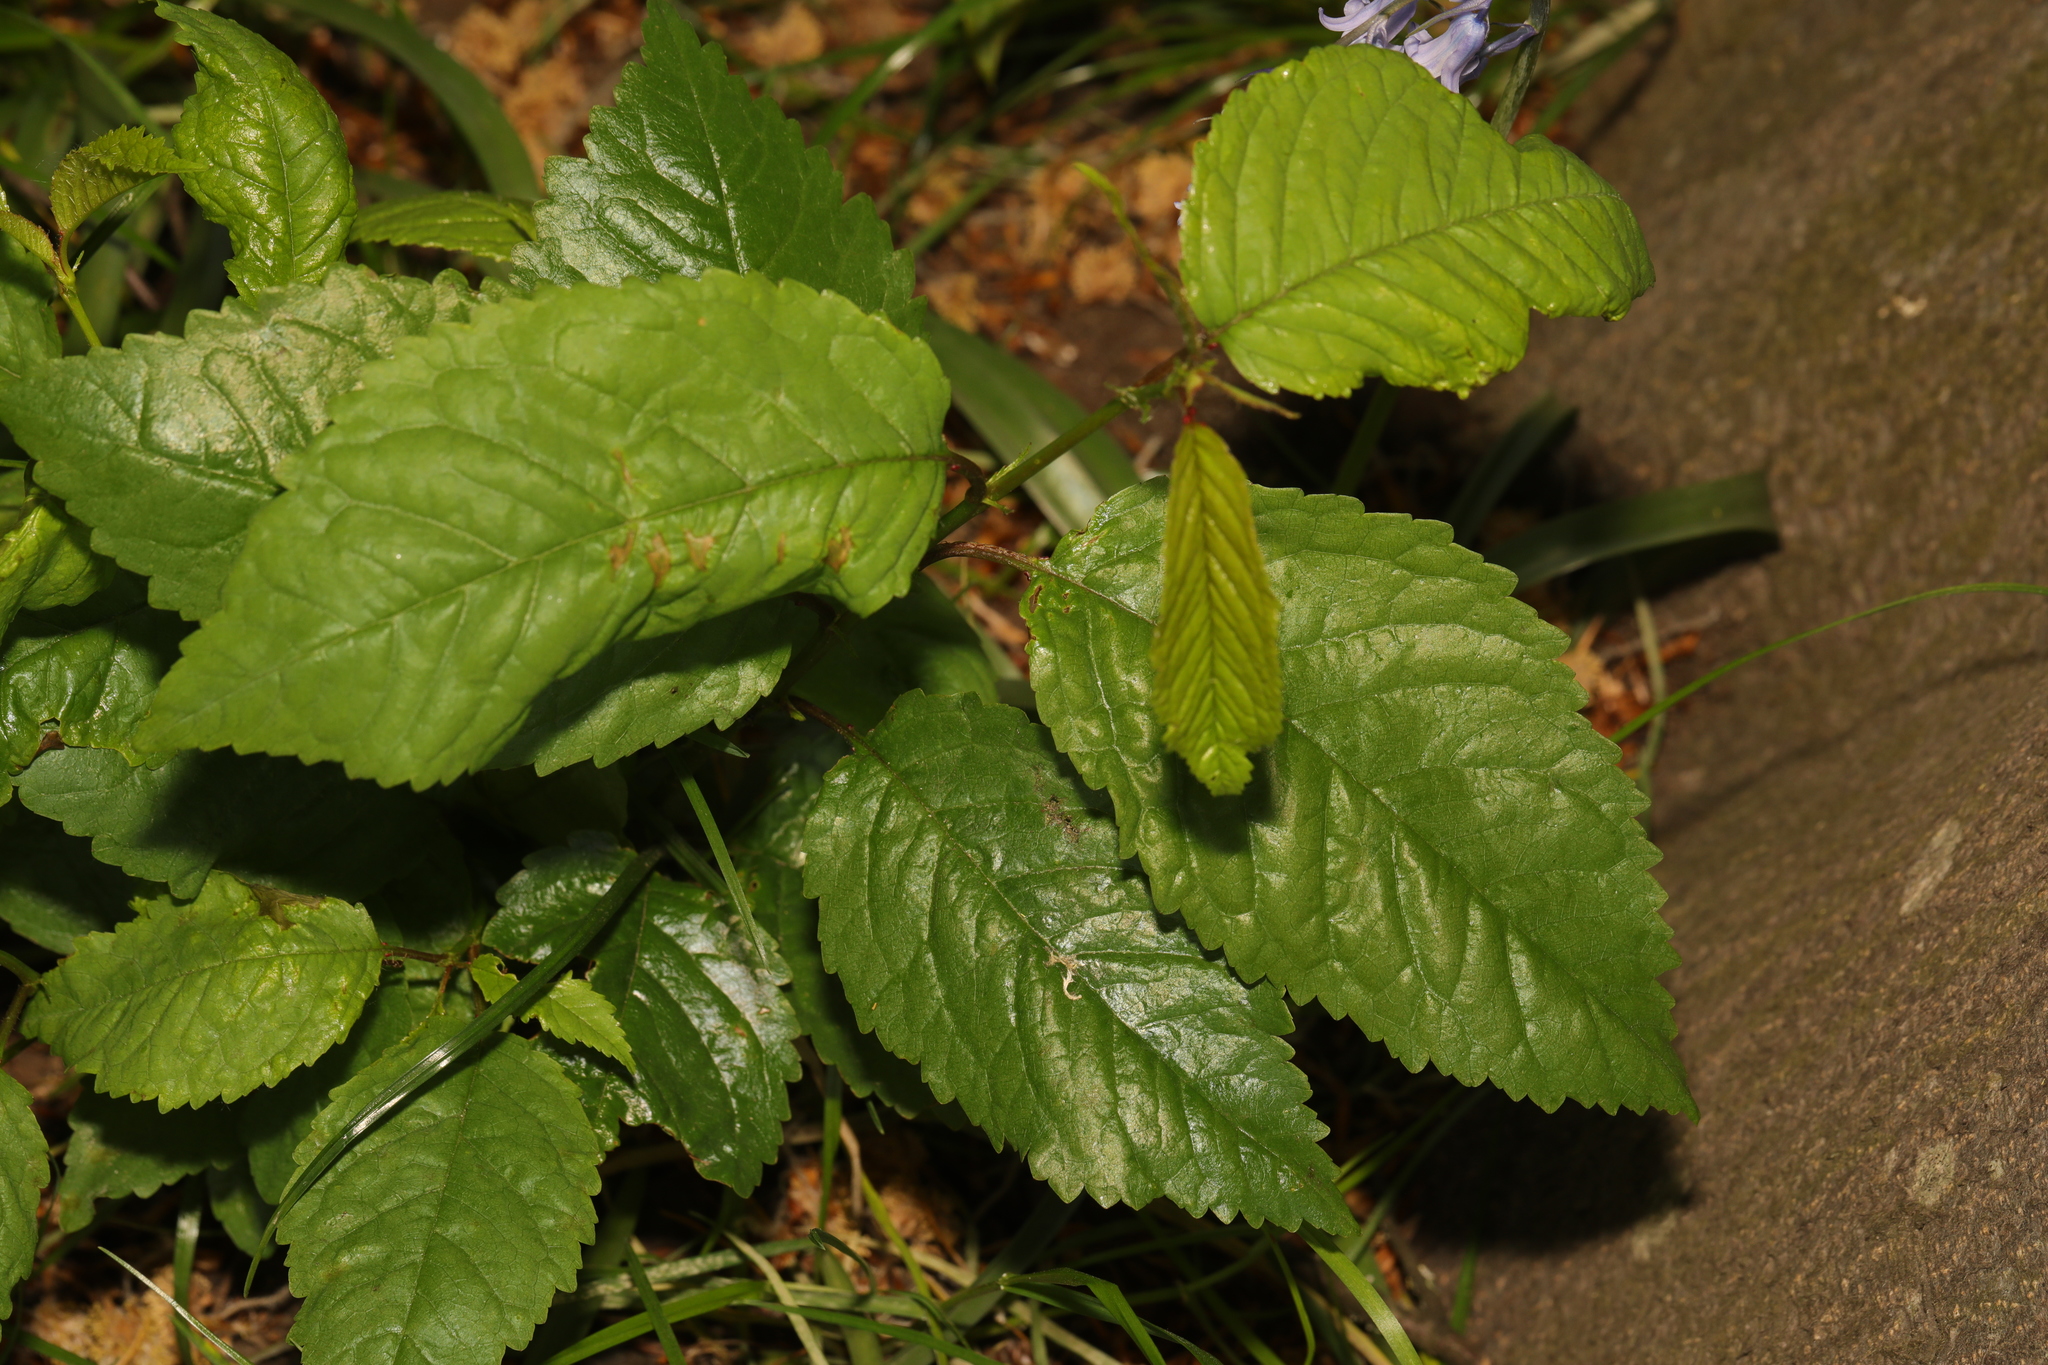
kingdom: Plantae
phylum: Tracheophyta
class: Magnoliopsida
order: Rosales
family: Rosaceae
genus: Prunus
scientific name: Prunus avium
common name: Sweet cherry
